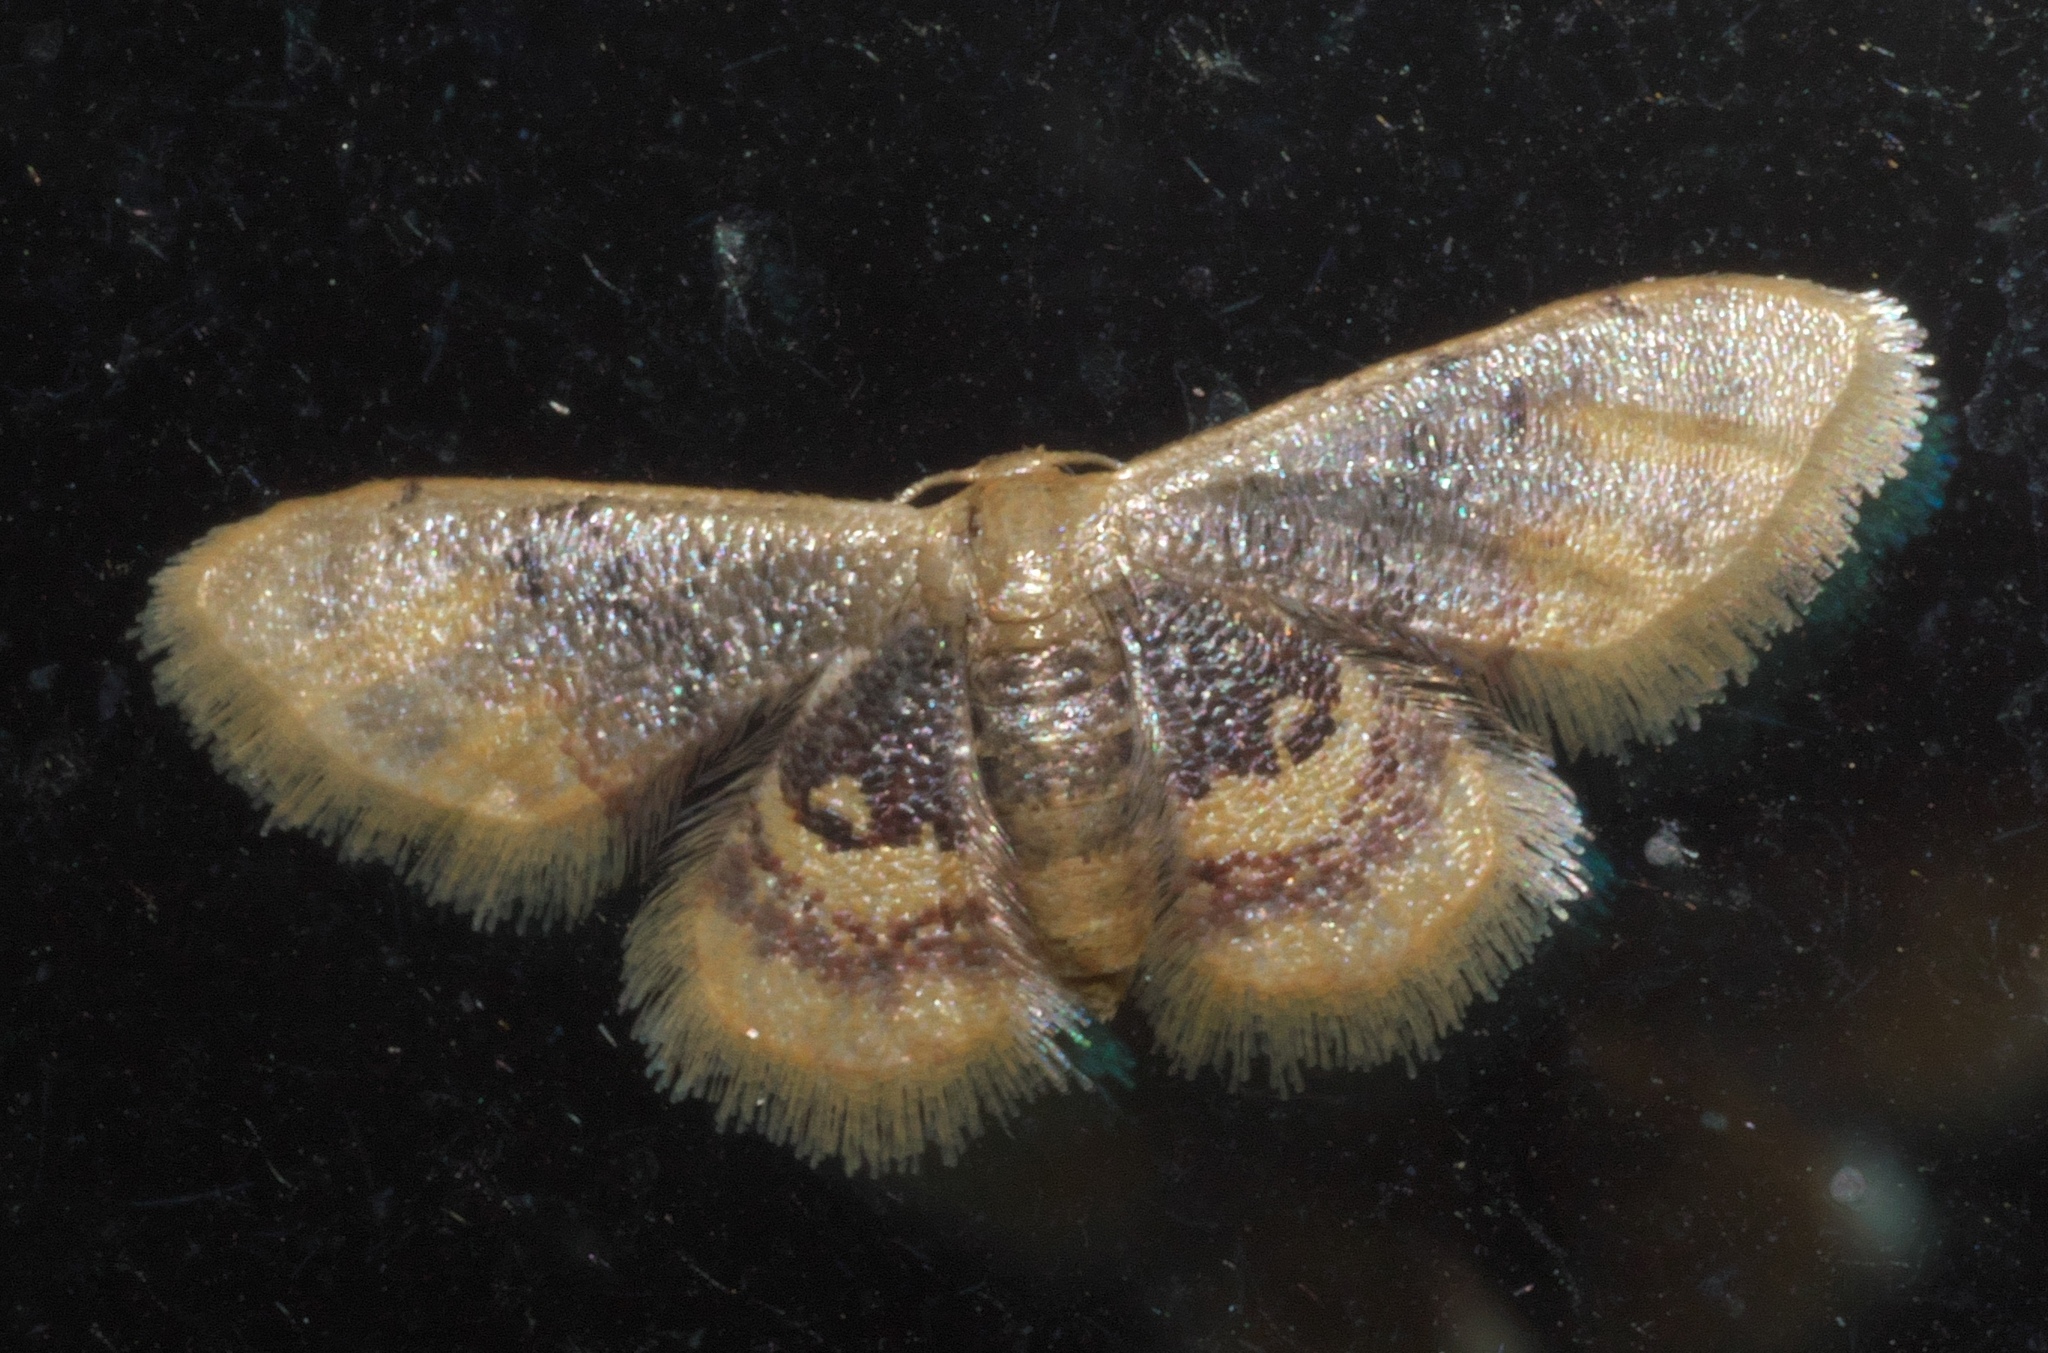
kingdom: Animalia
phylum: Arthropoda
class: Insecta
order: Lepidoptera
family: Geometridae
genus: Idaea
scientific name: Idaea scintillularia
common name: Diminutive wave
